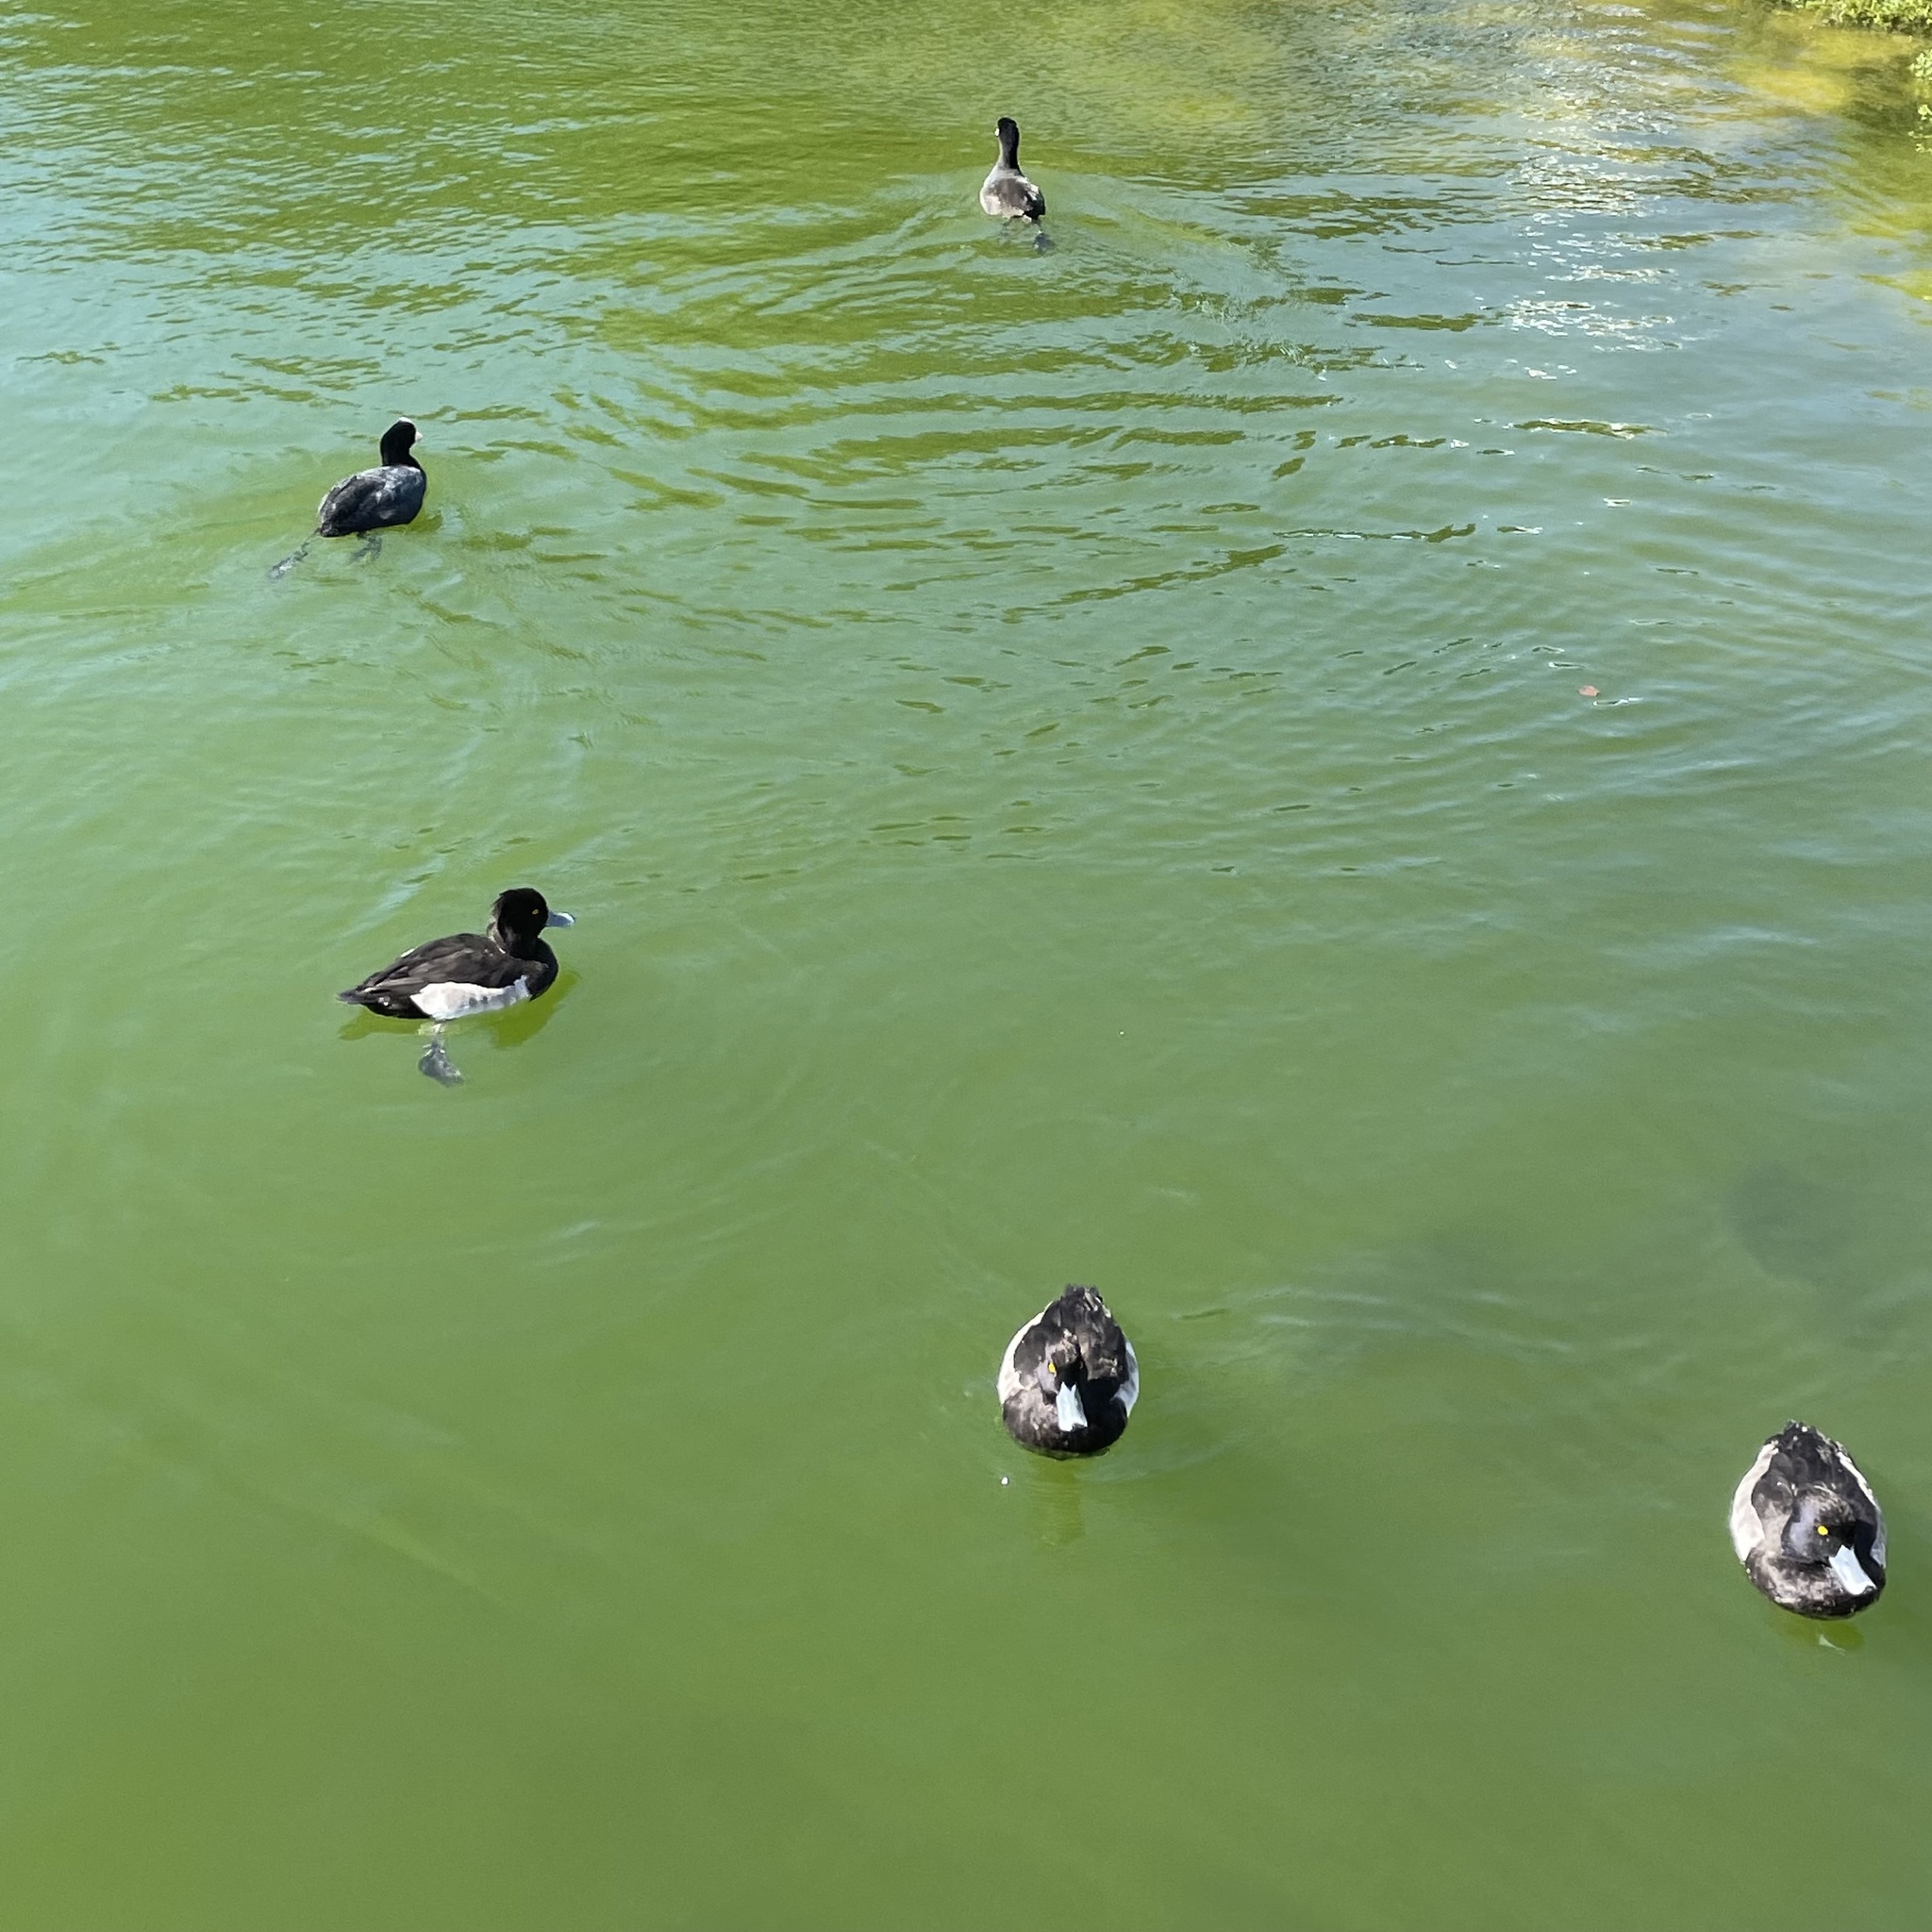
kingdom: Animalia
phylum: Chordata
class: Aves
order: Anseriformes
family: Anatidae
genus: Aythya
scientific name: Aythya fuligula
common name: Tufted duck
